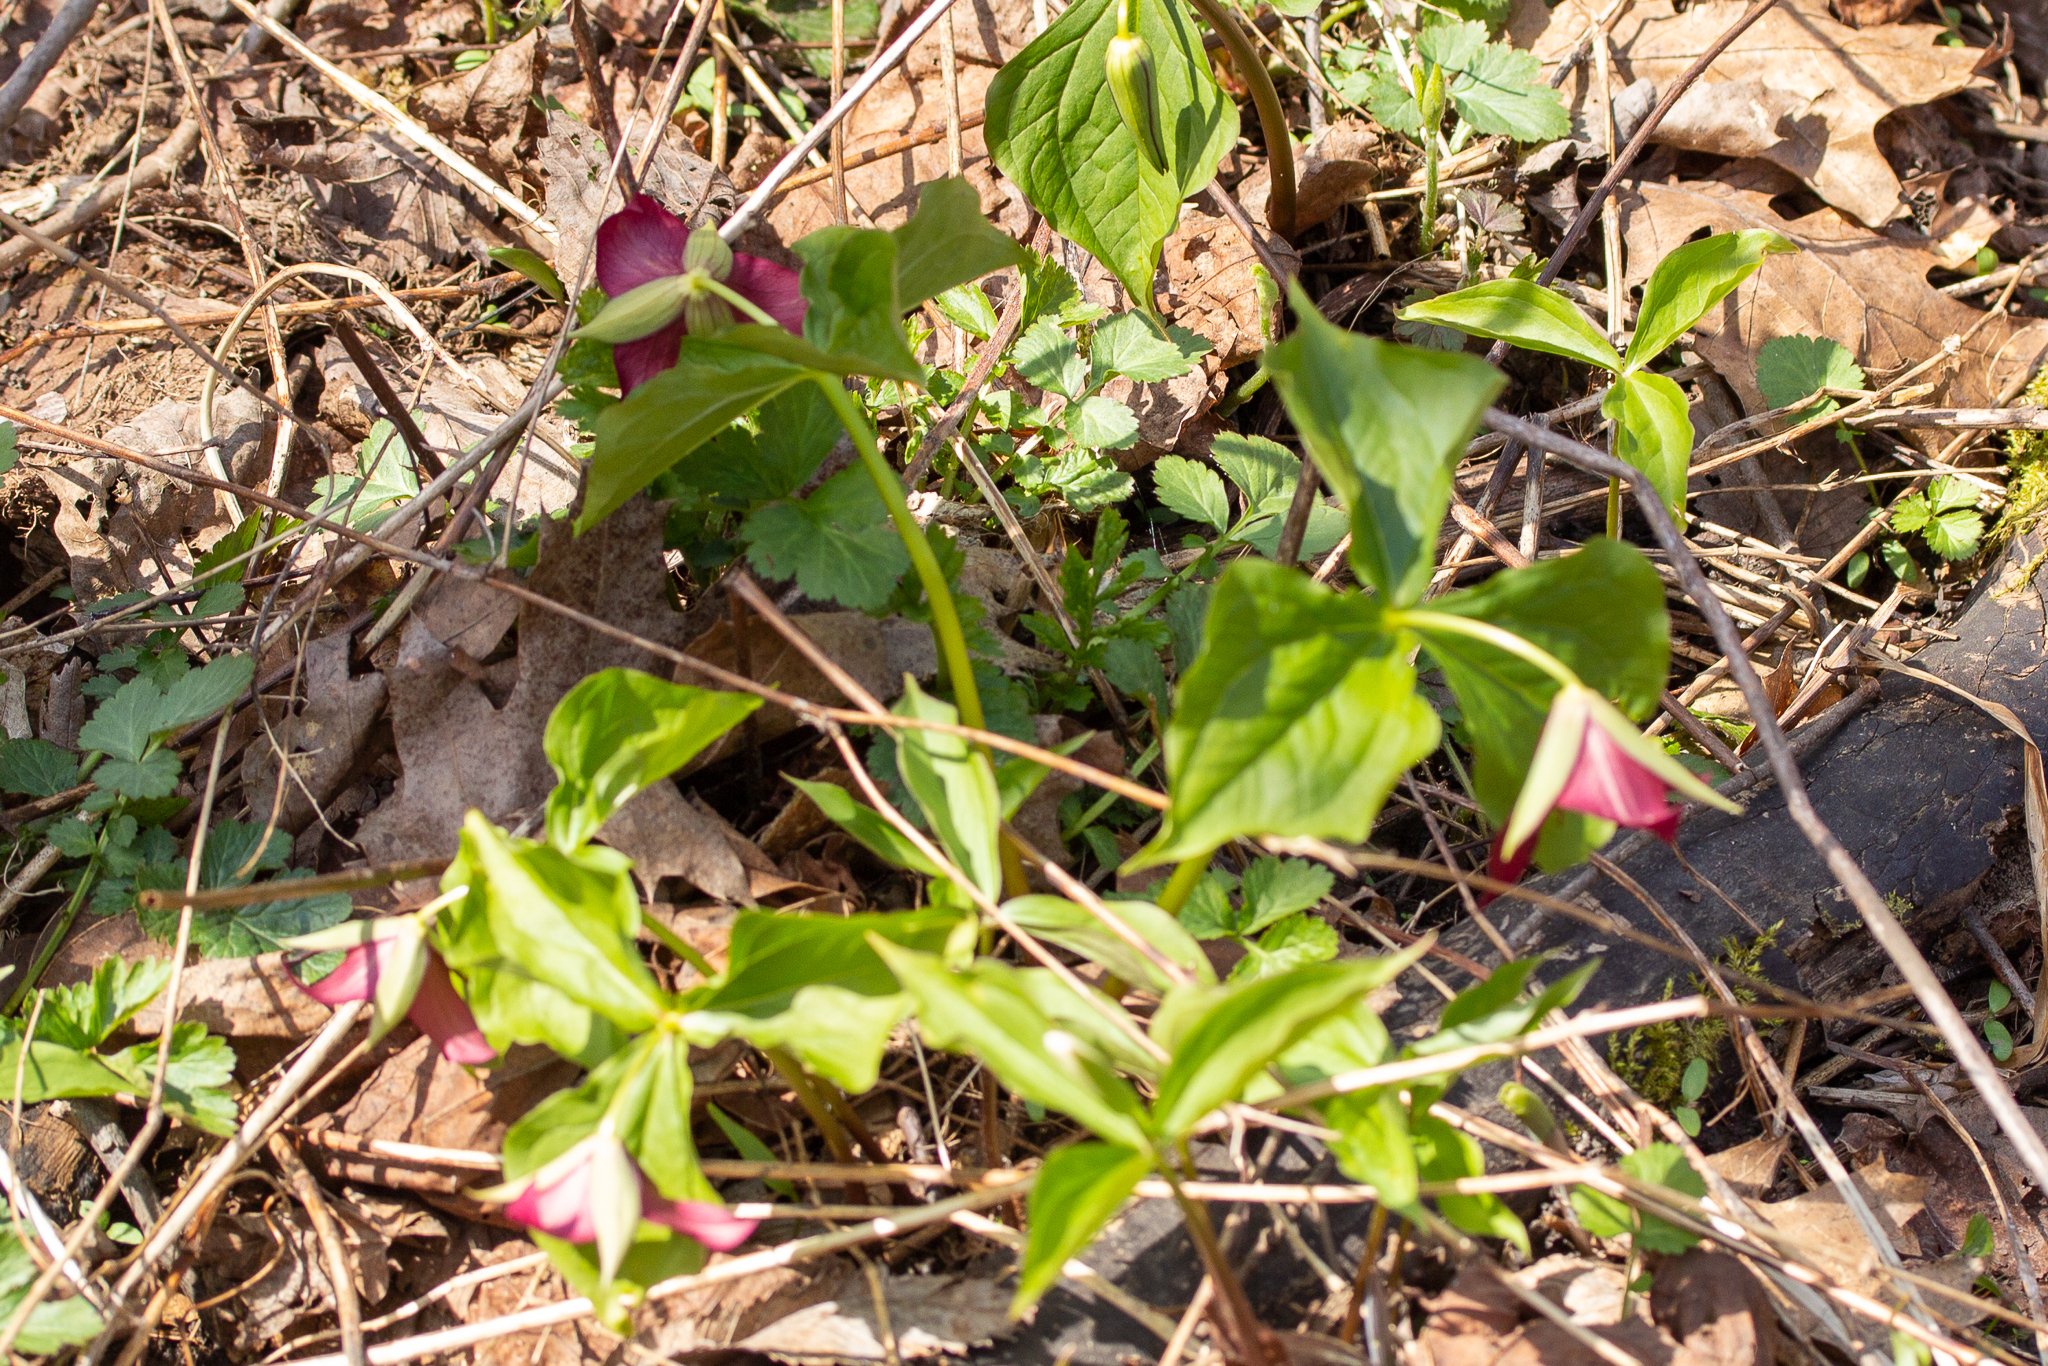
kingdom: Plantae
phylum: Tracheophyta
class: Liliopsida
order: Liliales
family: Melanthiaceae
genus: Trillium
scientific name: Trillium erectum
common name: Purple trillium
